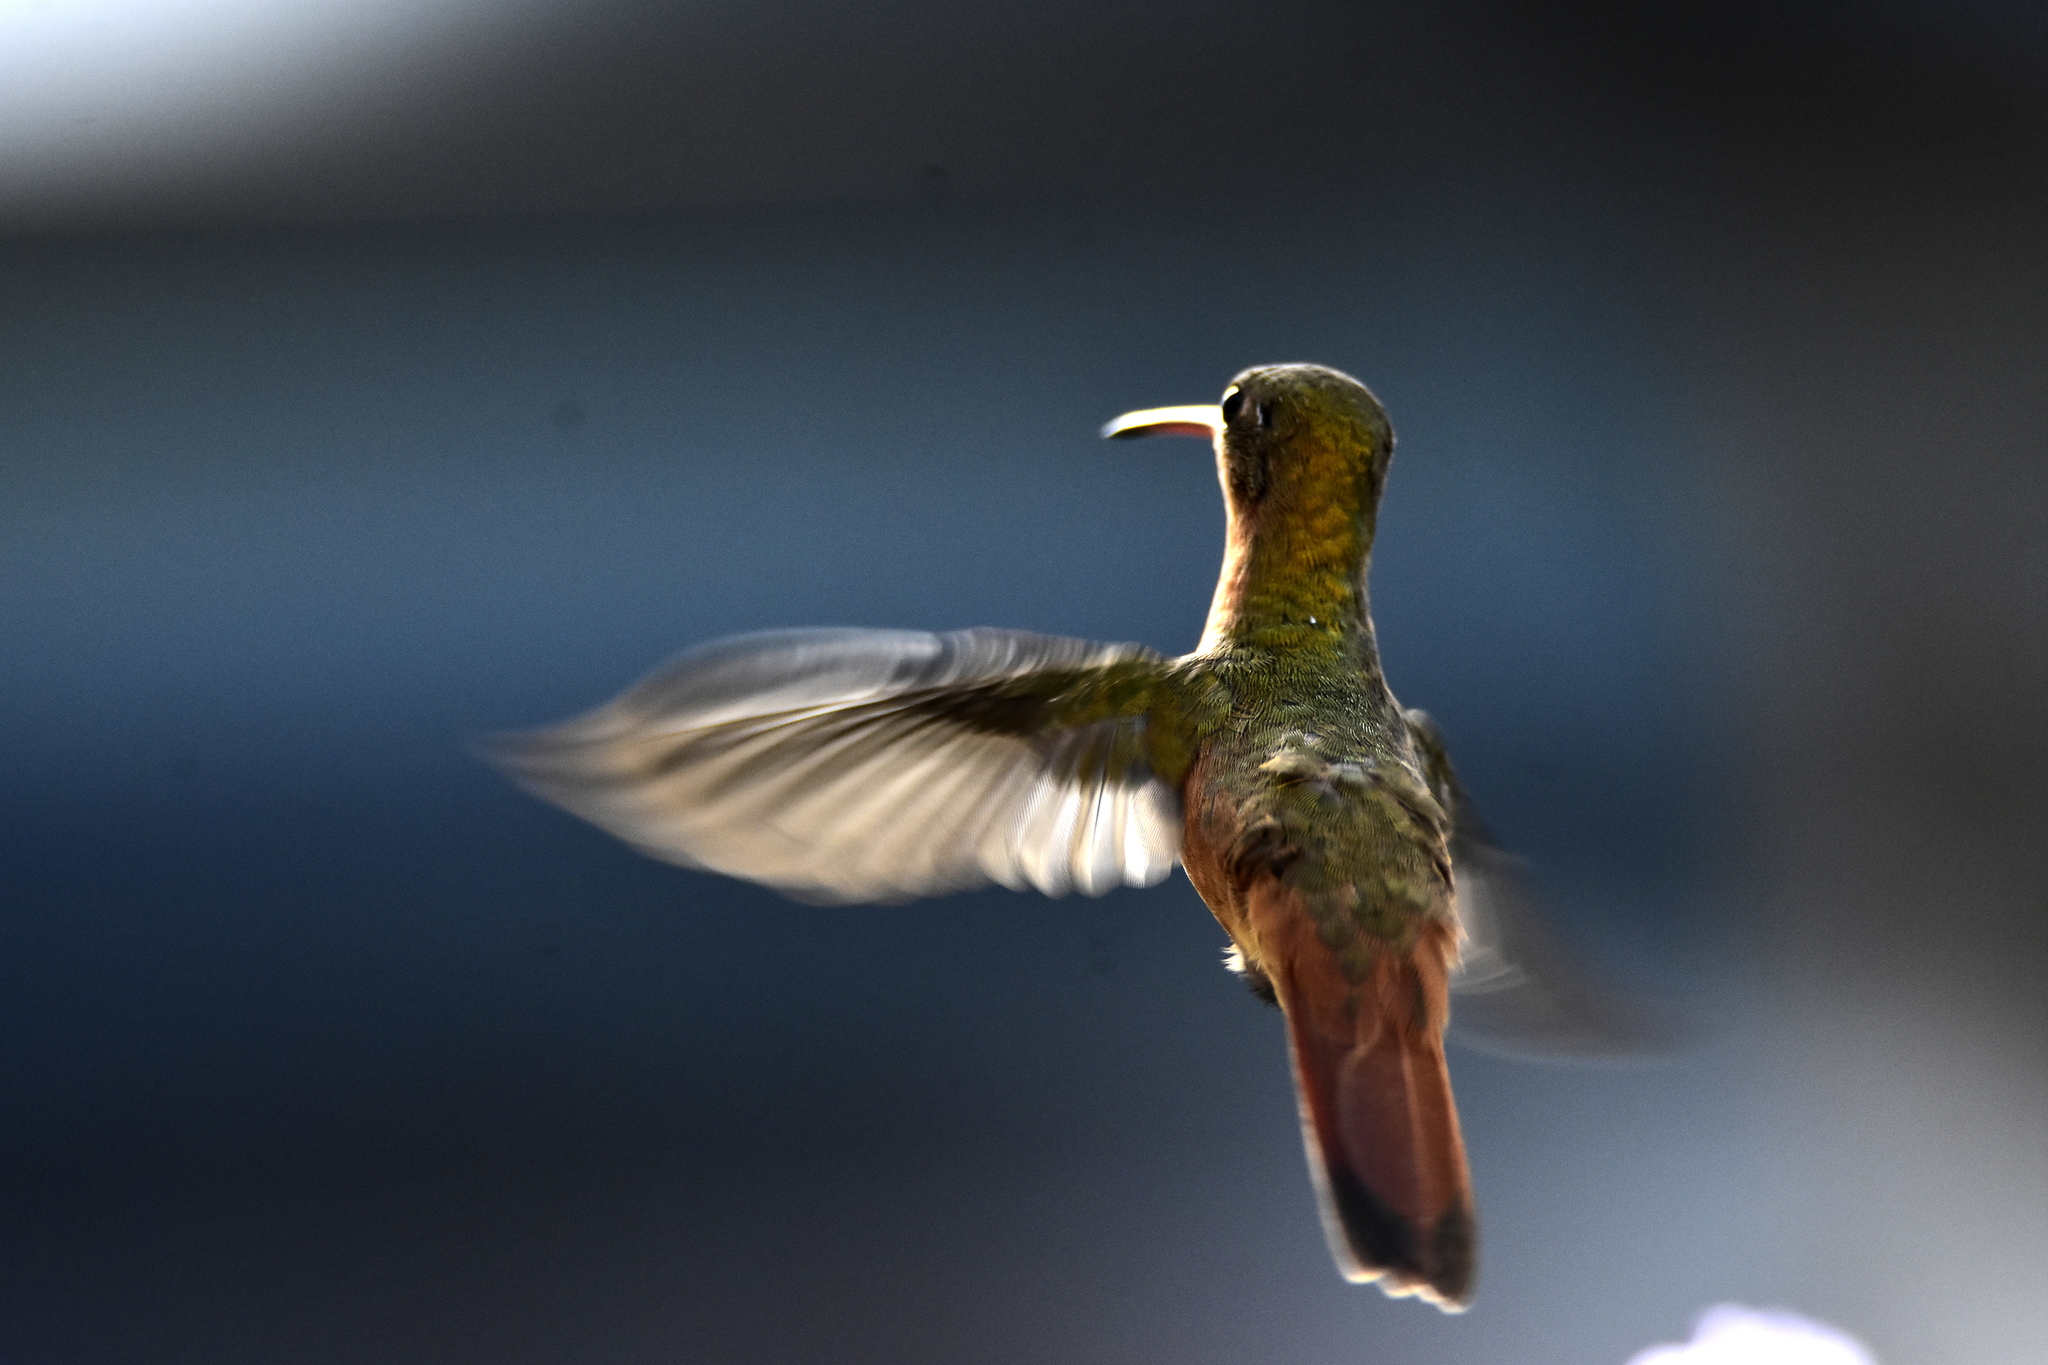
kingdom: Animalia
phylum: Chordata
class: Aves
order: Apodiformes
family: Trochilidae
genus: Amazilia
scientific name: Amazilia rutila
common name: Cinnamon hummingbird
